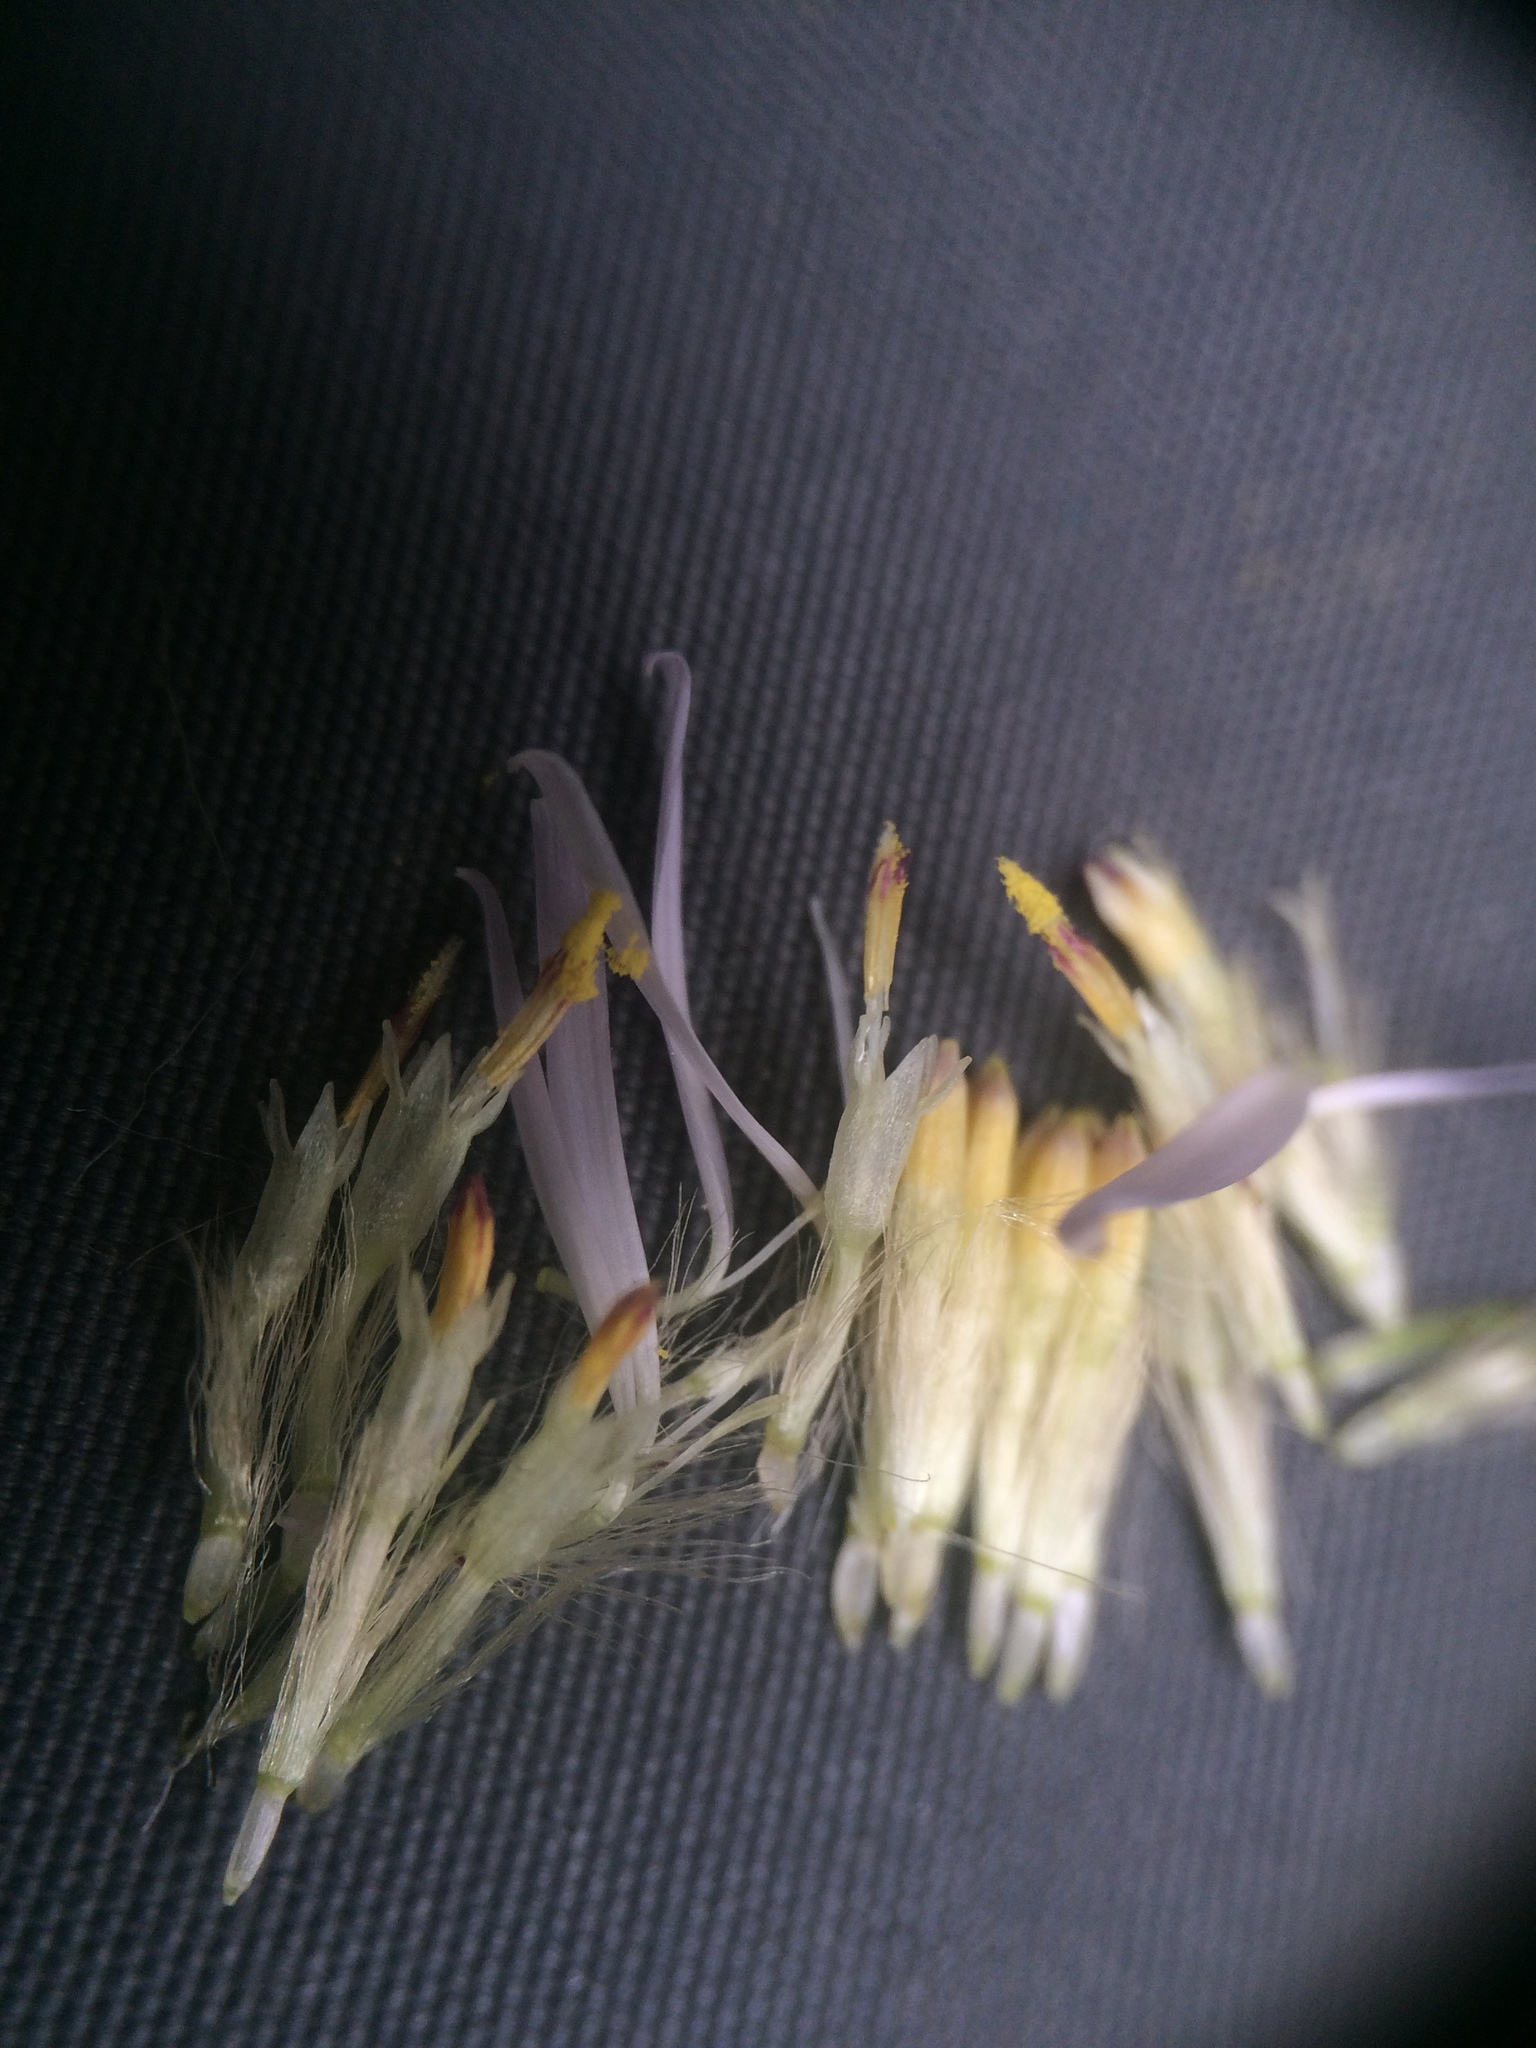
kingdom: Plantae
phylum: Tracheophyta
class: Magnoliopsida
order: Asterales
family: Asteraceae
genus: Symphyotrichum
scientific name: Symphyotrichum cordifolium
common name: Beeweed
